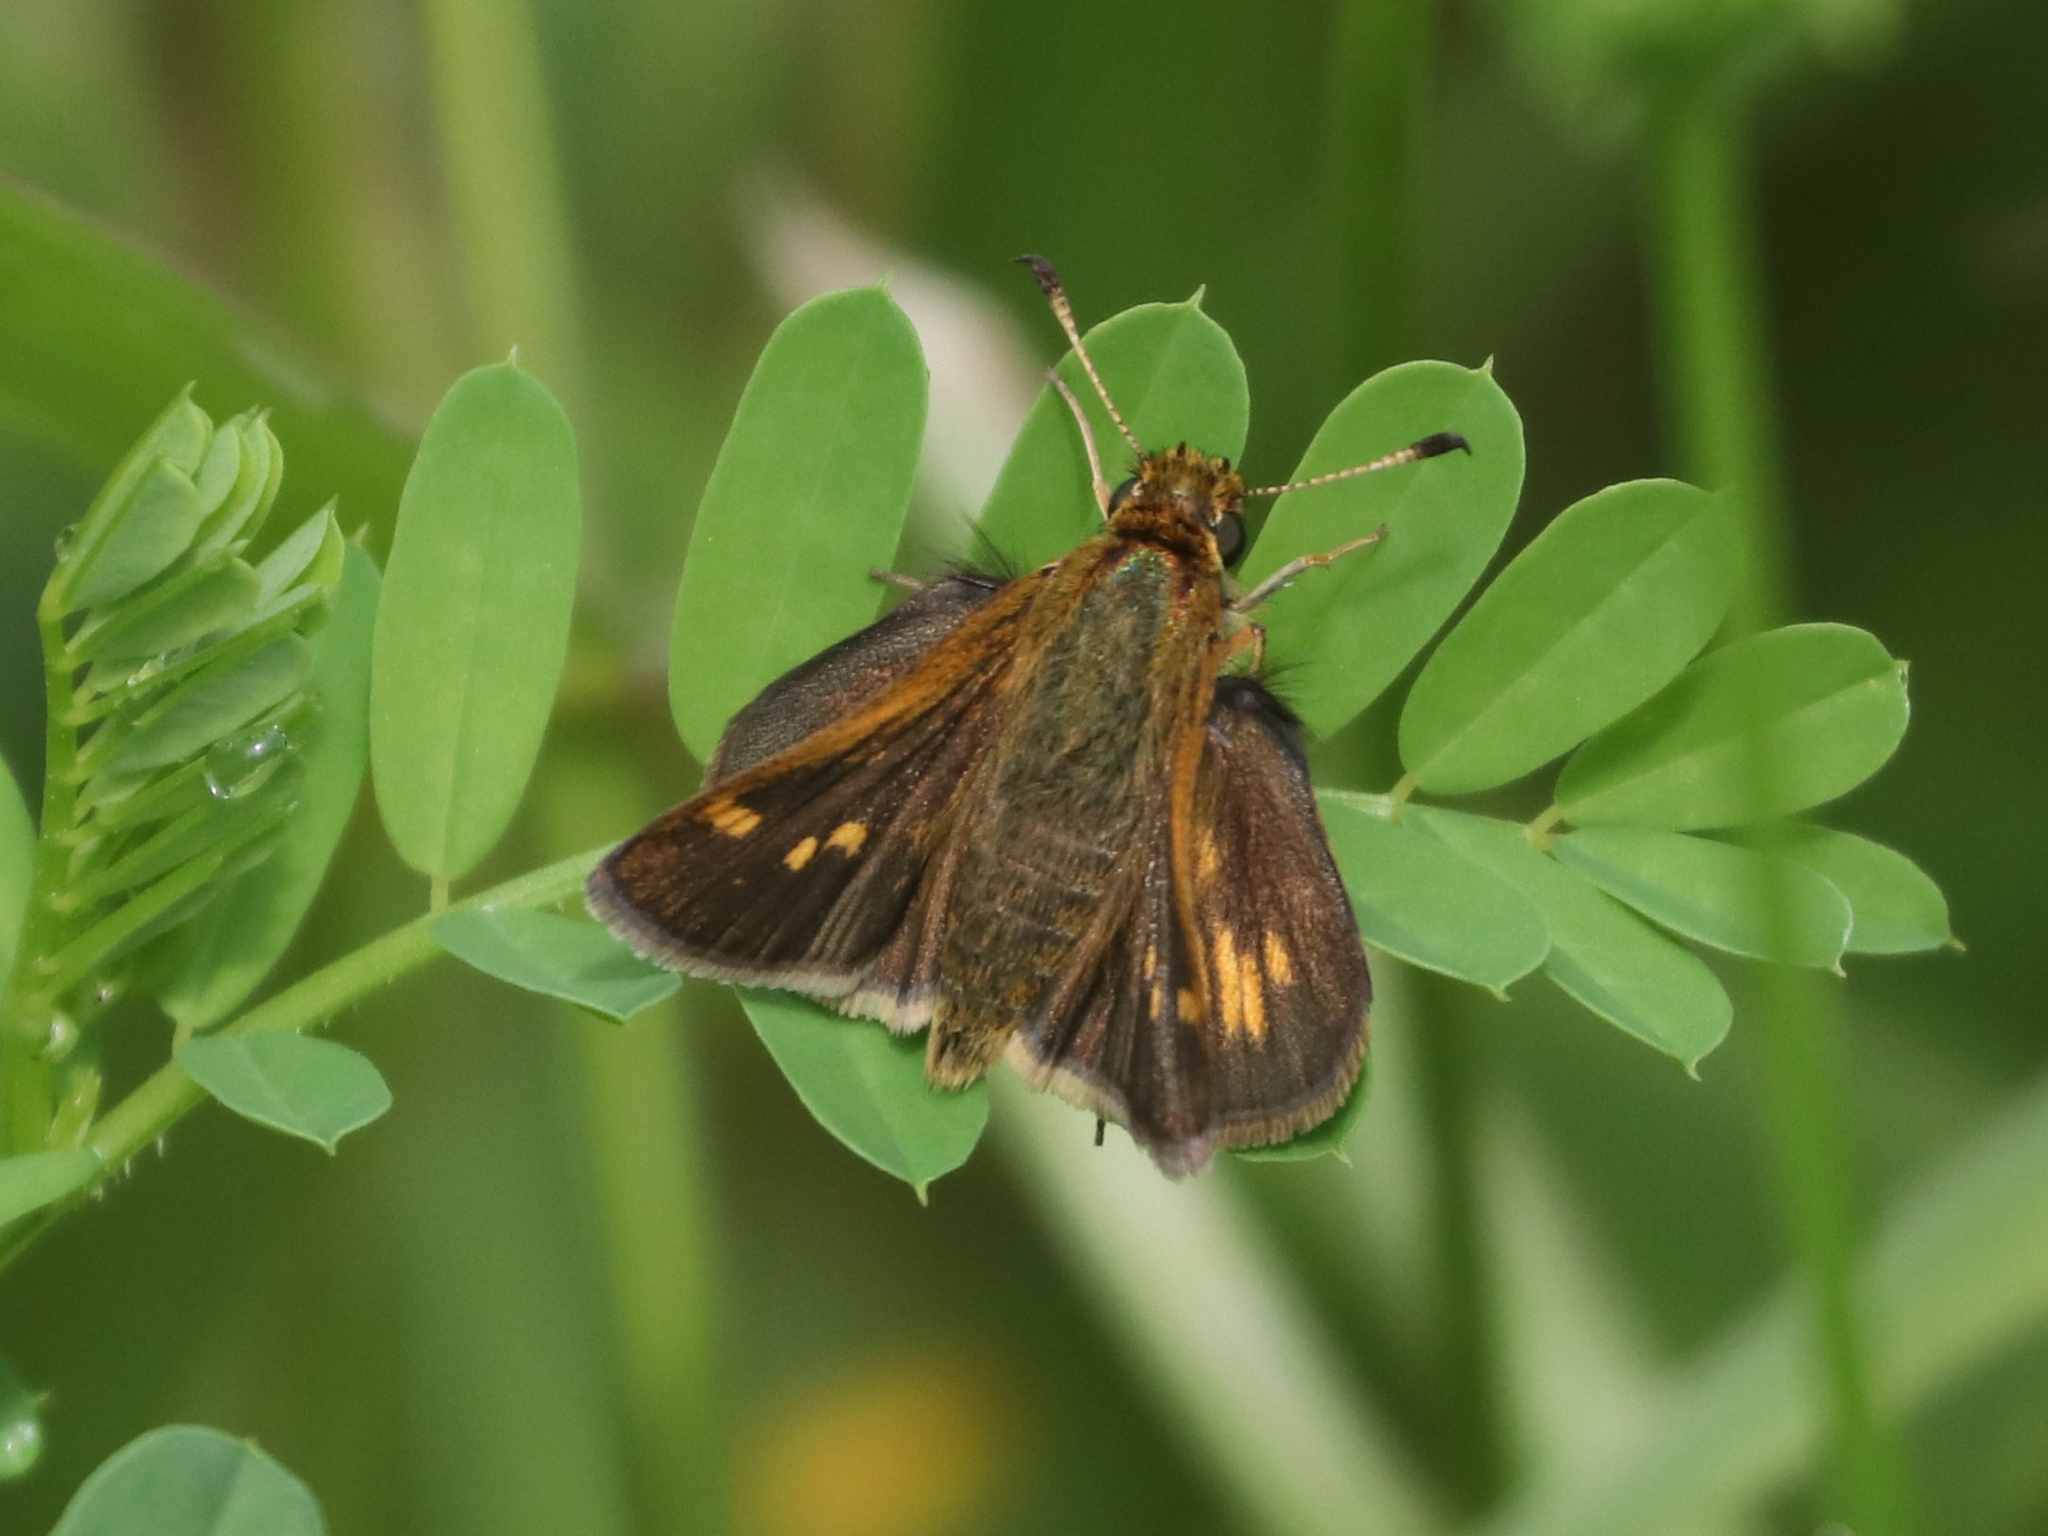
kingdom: Animalia
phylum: Arthropoda
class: Insecta
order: Lepidoptera
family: Hesperiidae
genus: Polites
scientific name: Polites coras
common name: Peck's skipper
